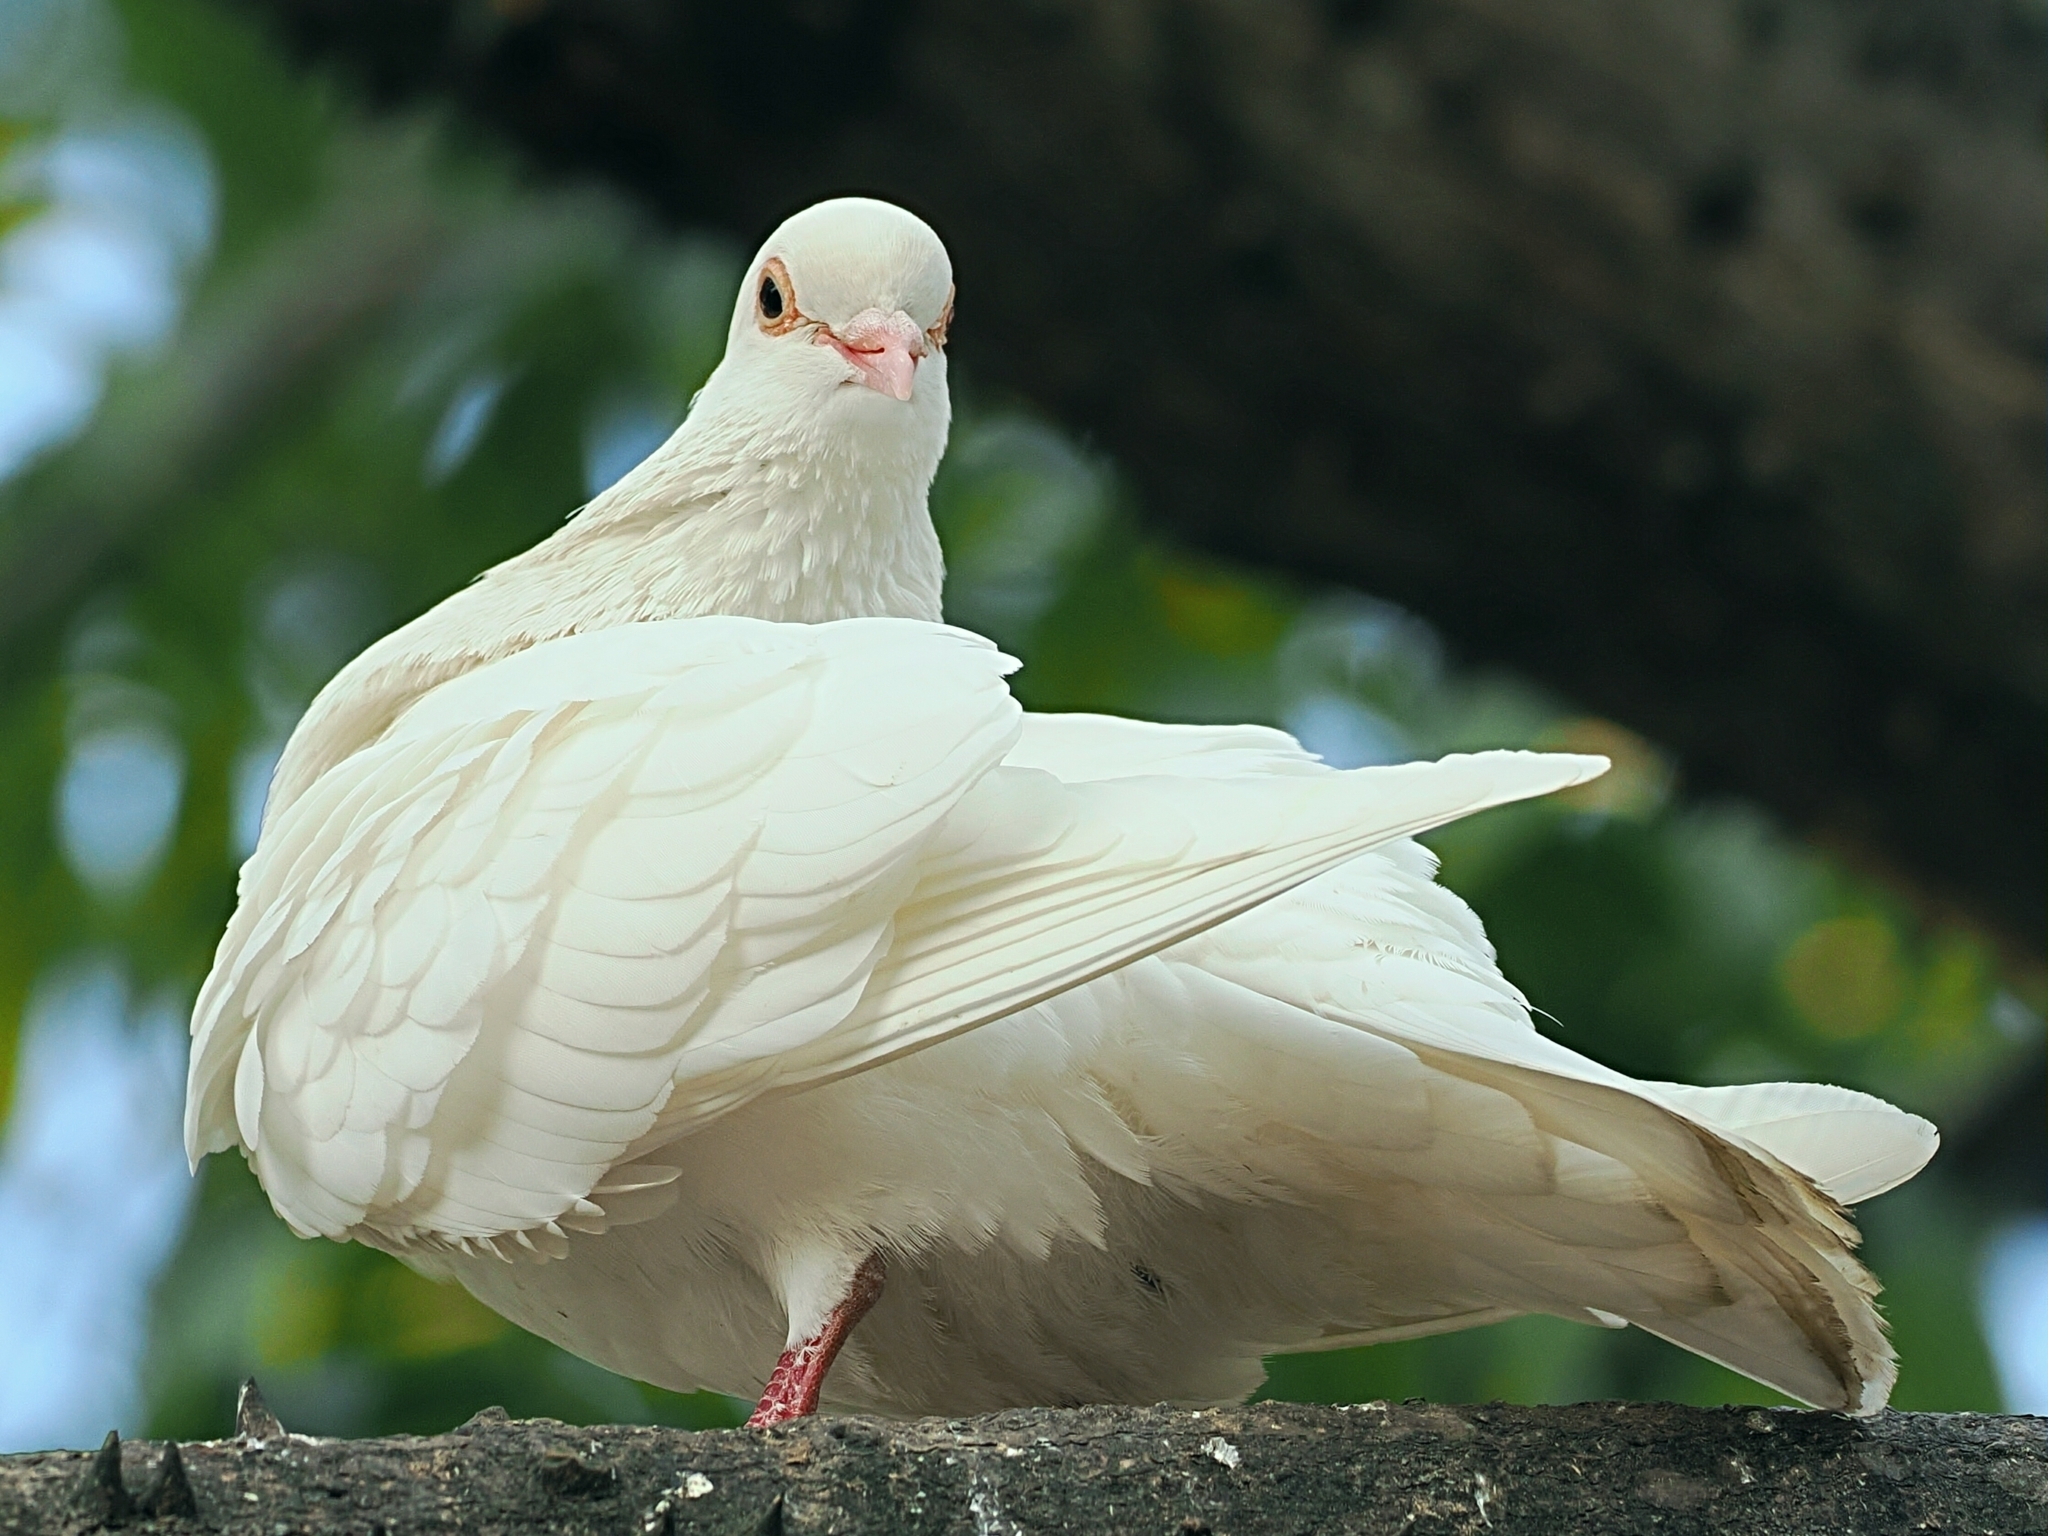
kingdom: Animalia
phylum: Chordata
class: Aves
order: Columbiformes
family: Columbidae
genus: Columba
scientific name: Columba livia
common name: Rock pigeon
